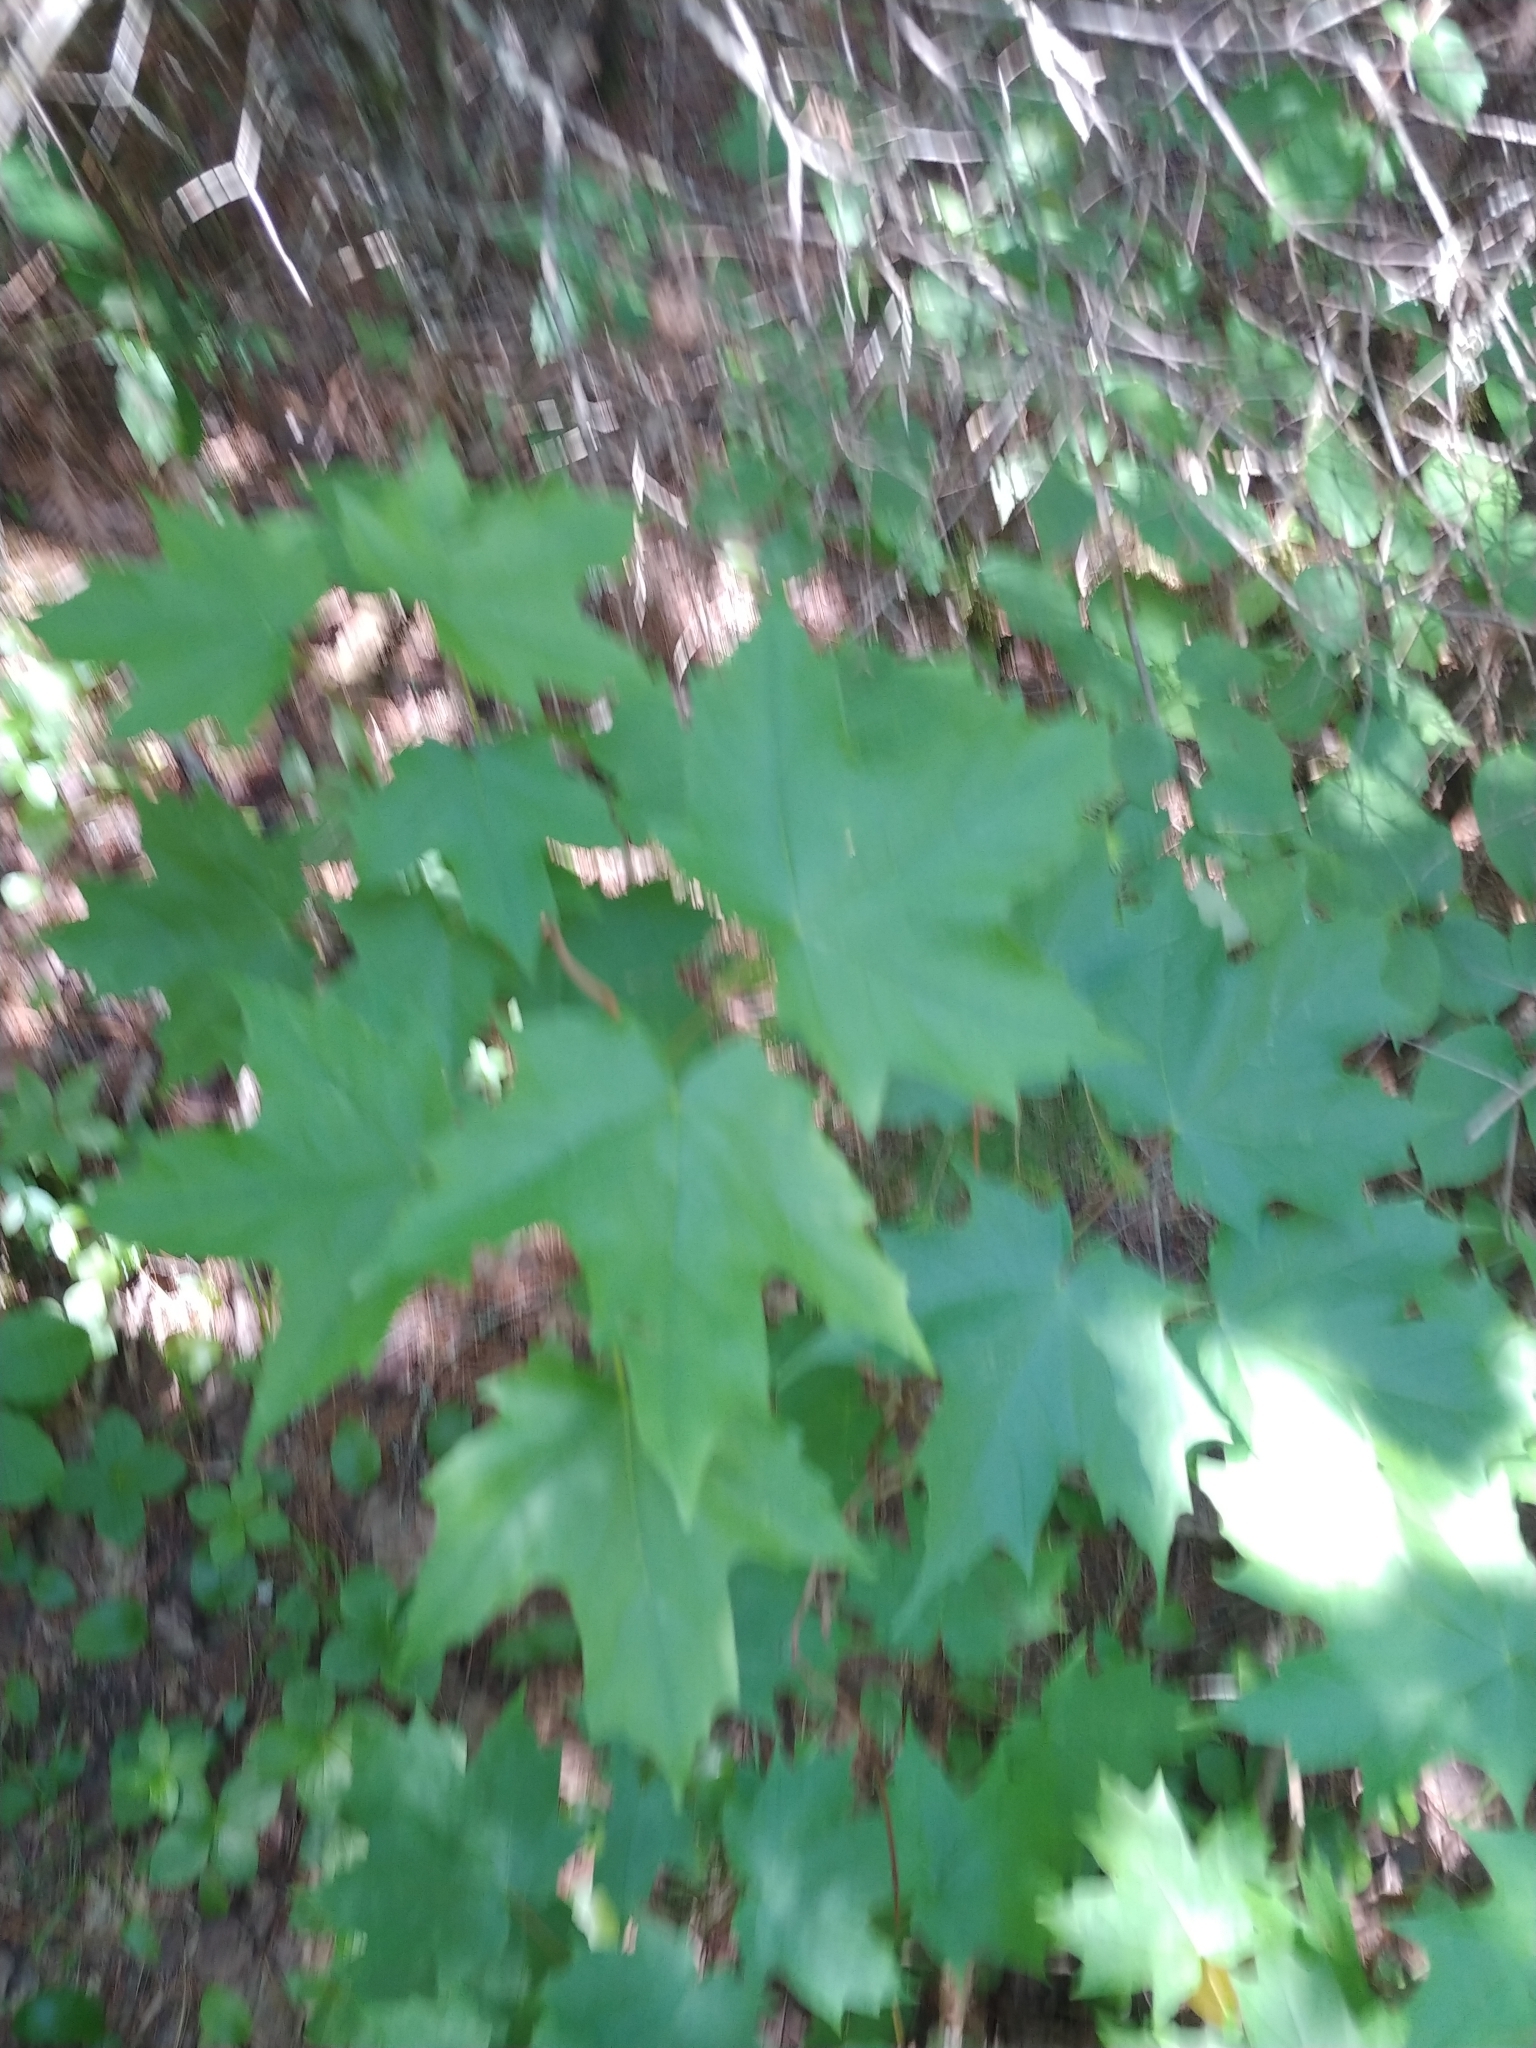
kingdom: Plantae
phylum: Tracheophyta
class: Magnoliopsida
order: Sapindales
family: Sapindaceae
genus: Acer
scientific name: Acer saccharum
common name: Sugar maple
